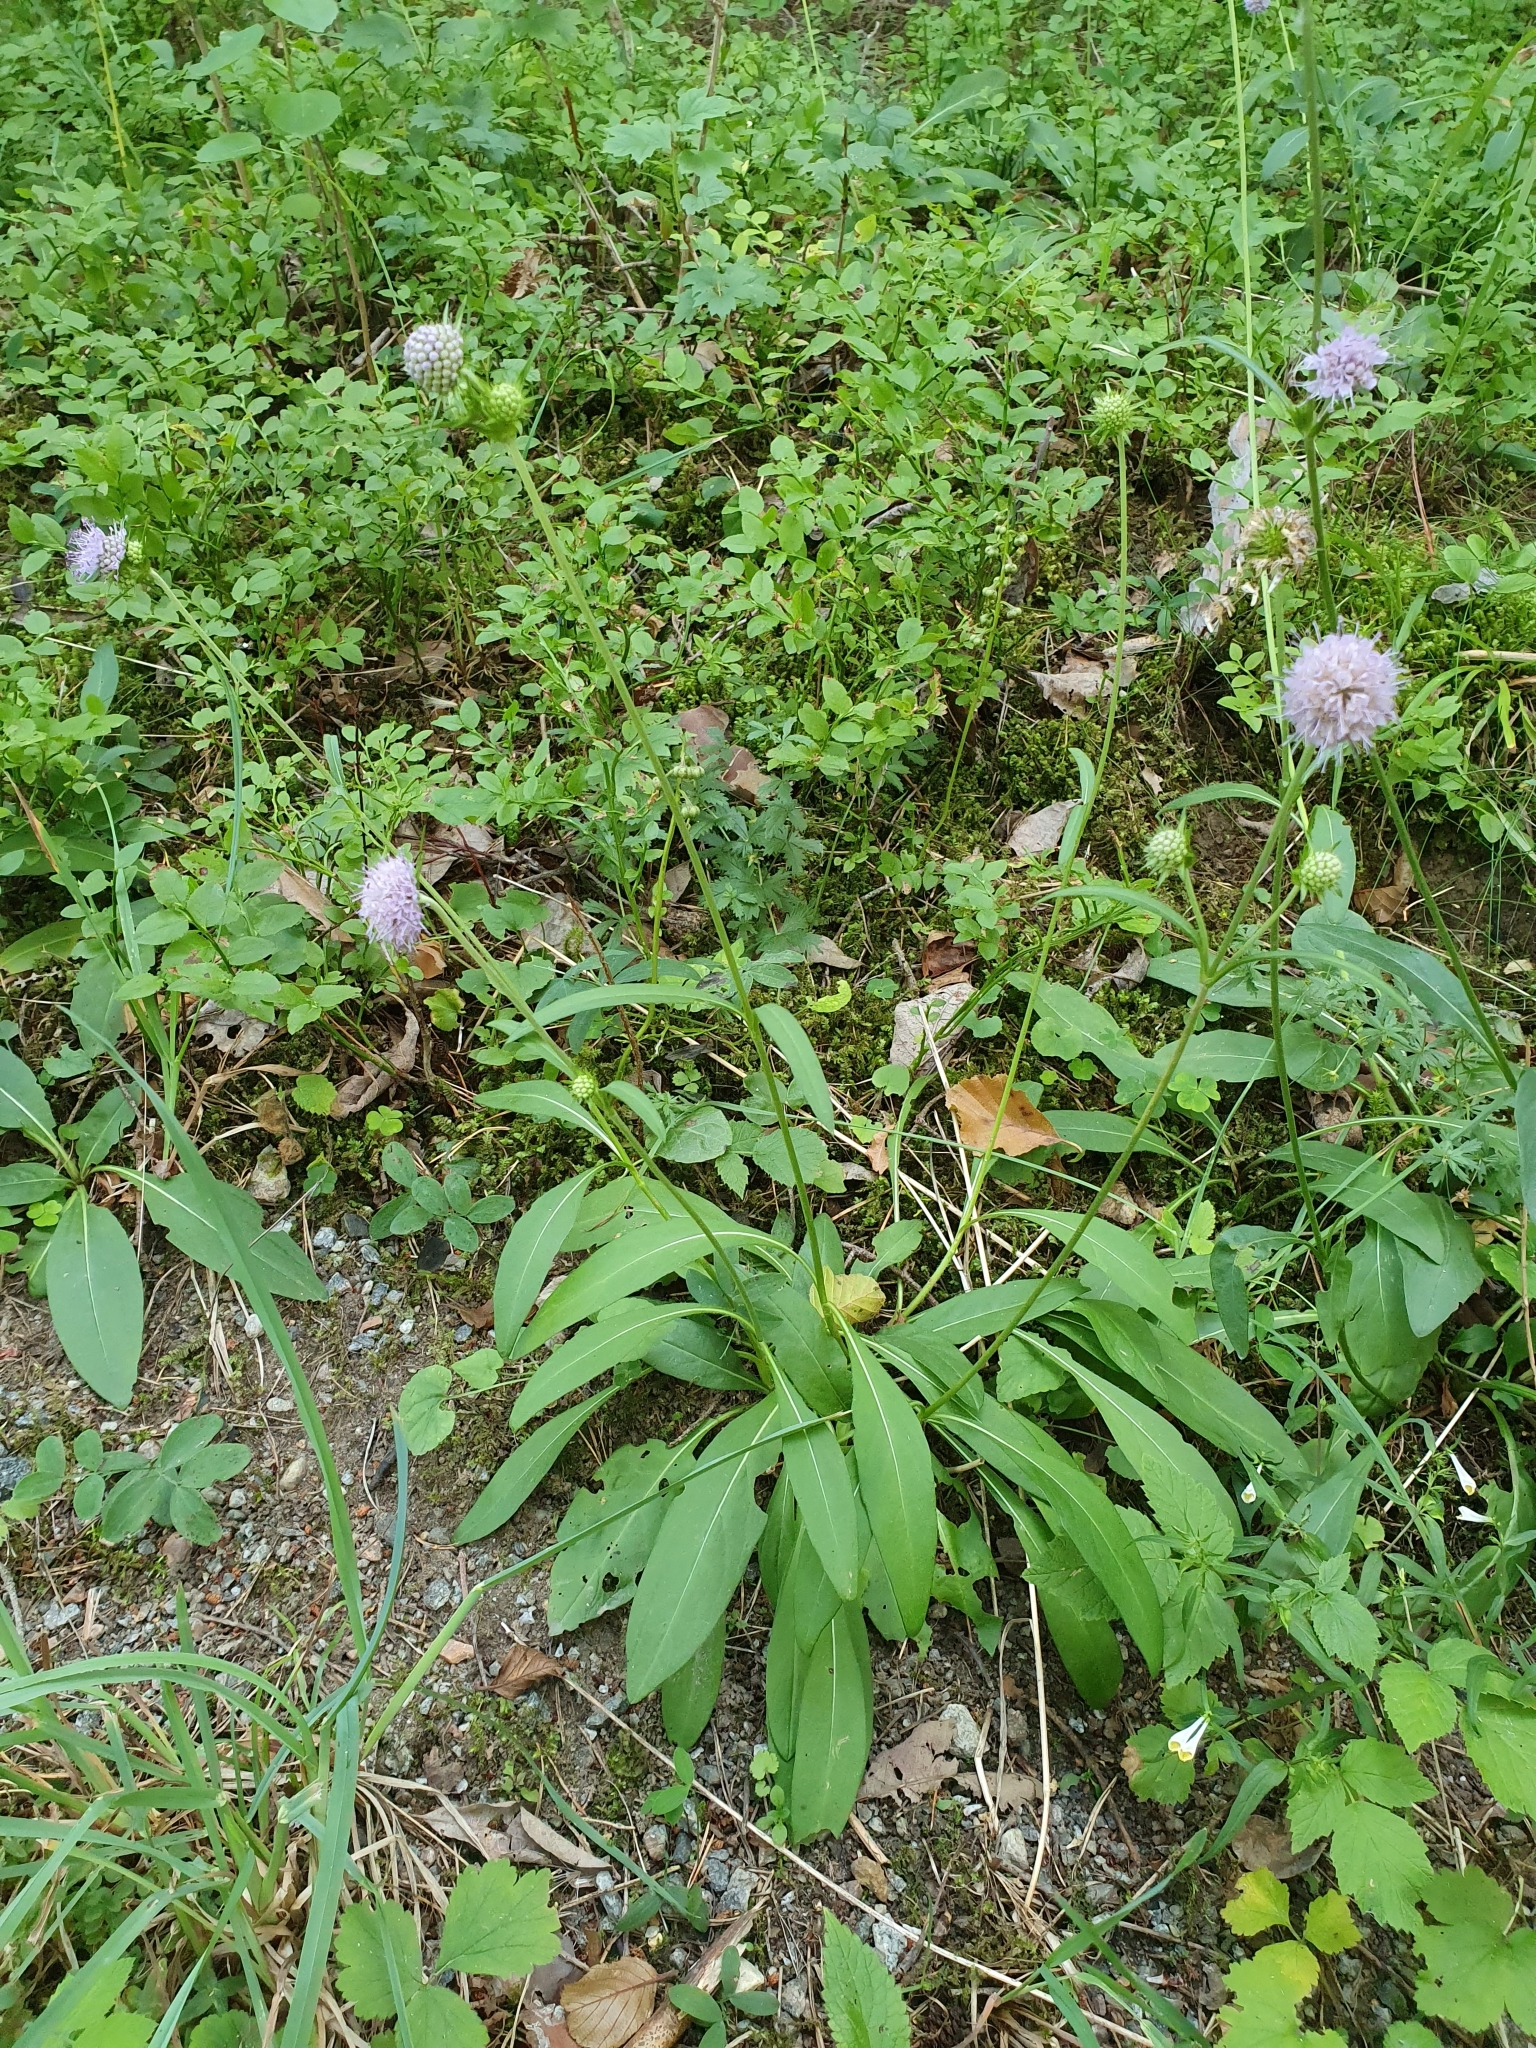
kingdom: Plantae
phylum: Tracheophyta
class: Magnoliopsida
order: Dipsacales
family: Caprifoliaceae
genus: Succisa
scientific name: Succisa pratensis
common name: Devil's-bit
